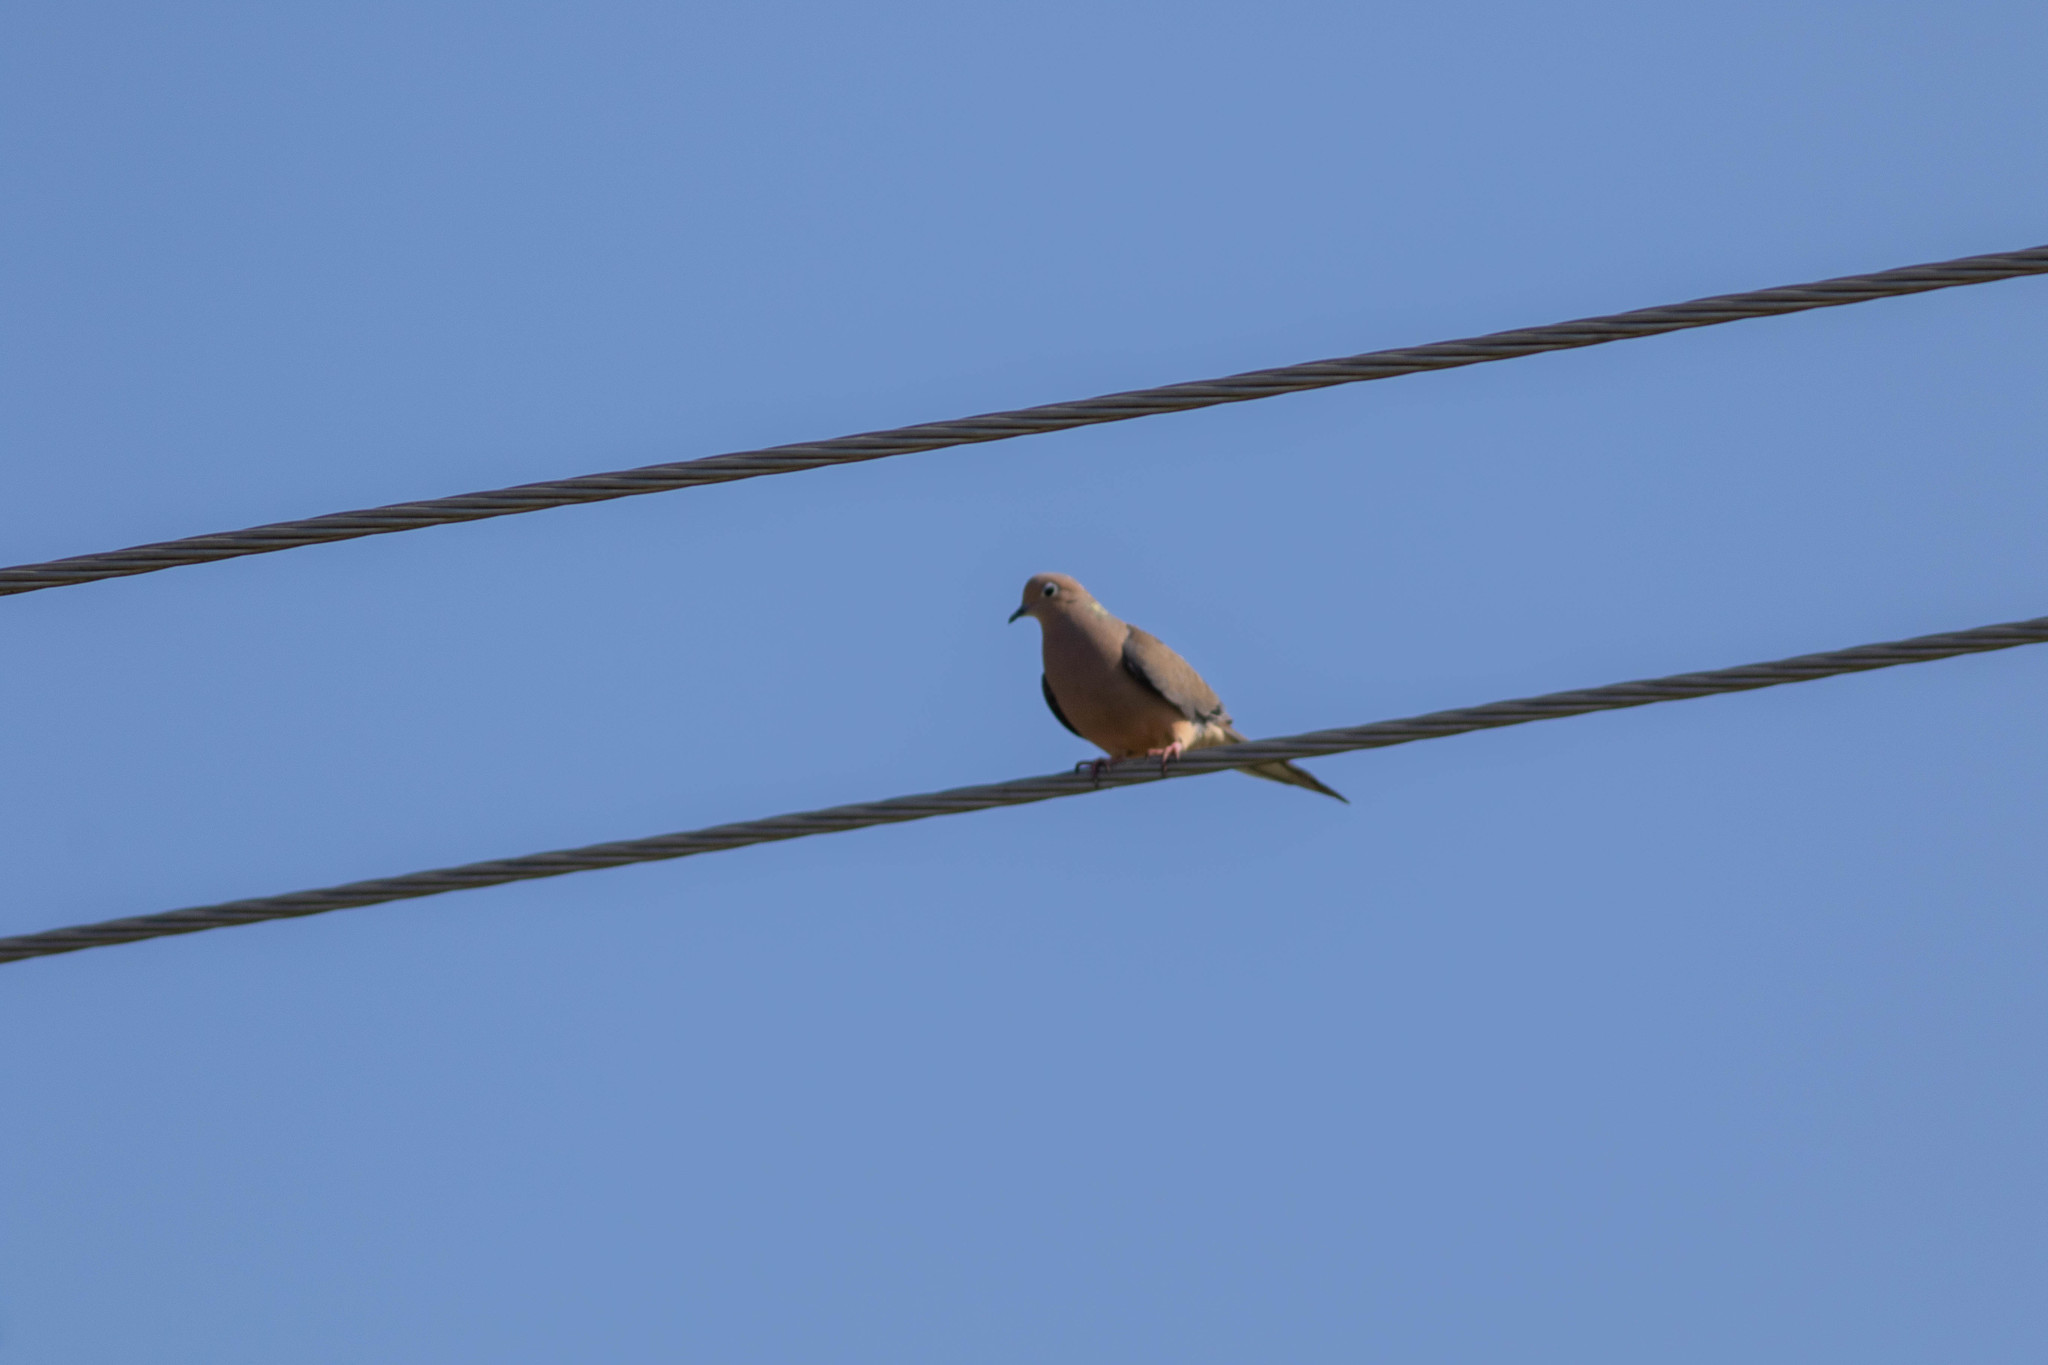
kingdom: Animalia
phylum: Chordata
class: Aves
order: Columbiformes
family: Columbidae
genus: Zenaida
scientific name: Zenaida macroura
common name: Mourning dove
